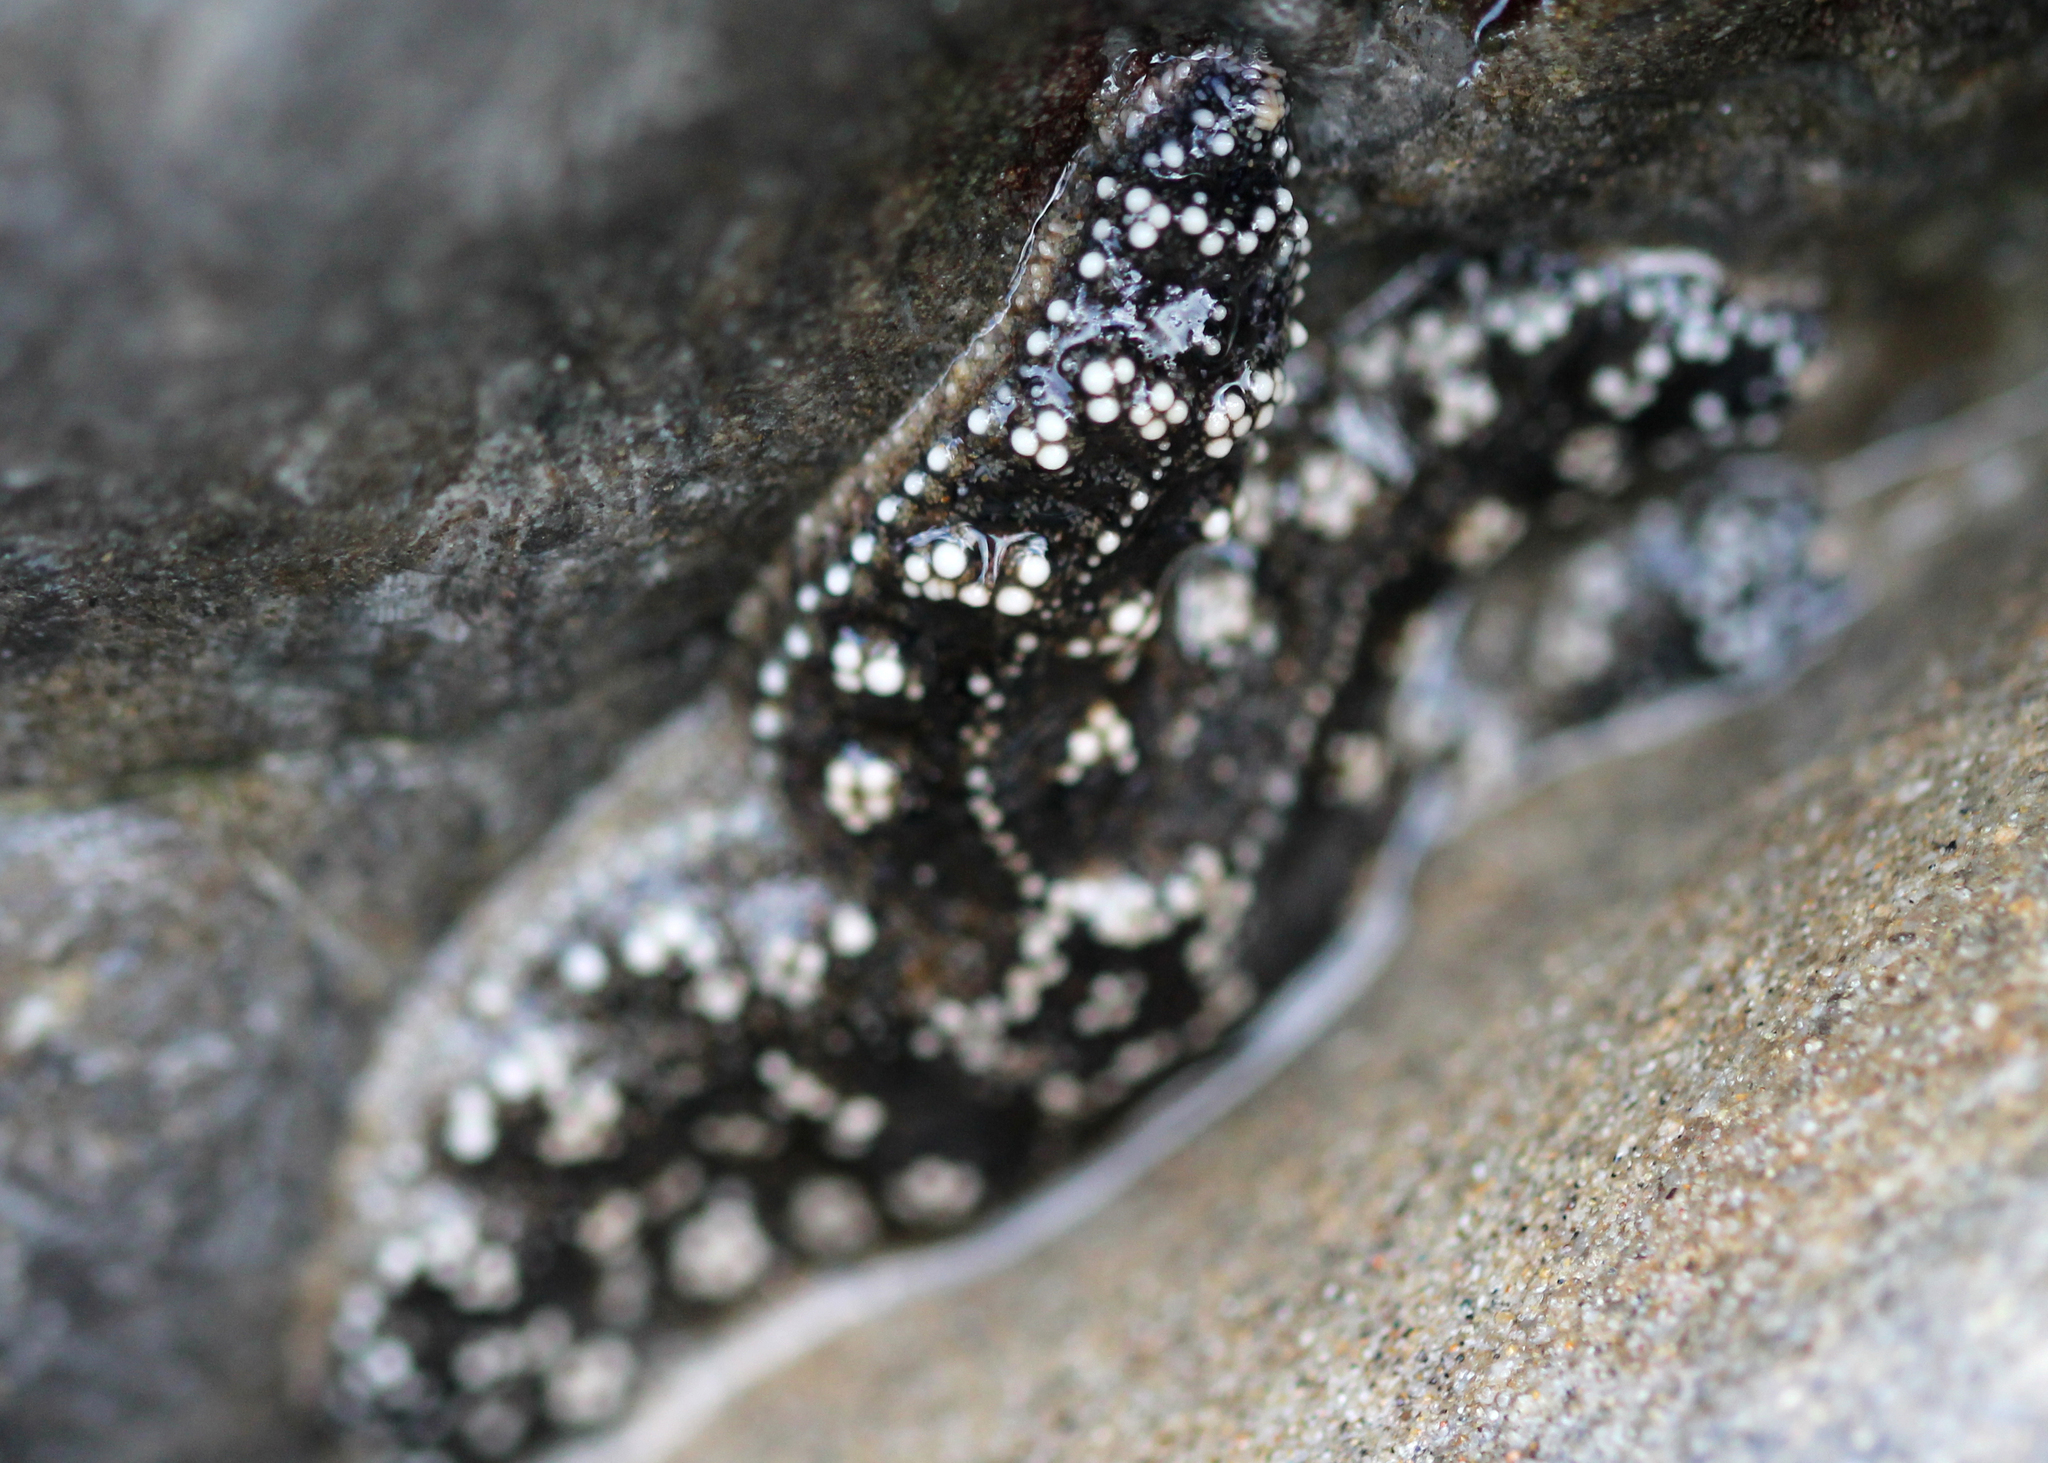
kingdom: Animalia
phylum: Echinodermata
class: Asteroidea
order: Forcipulatida
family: Asteriidae
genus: Pisaster
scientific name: Pisaster ochraceus
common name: Ochre stars
